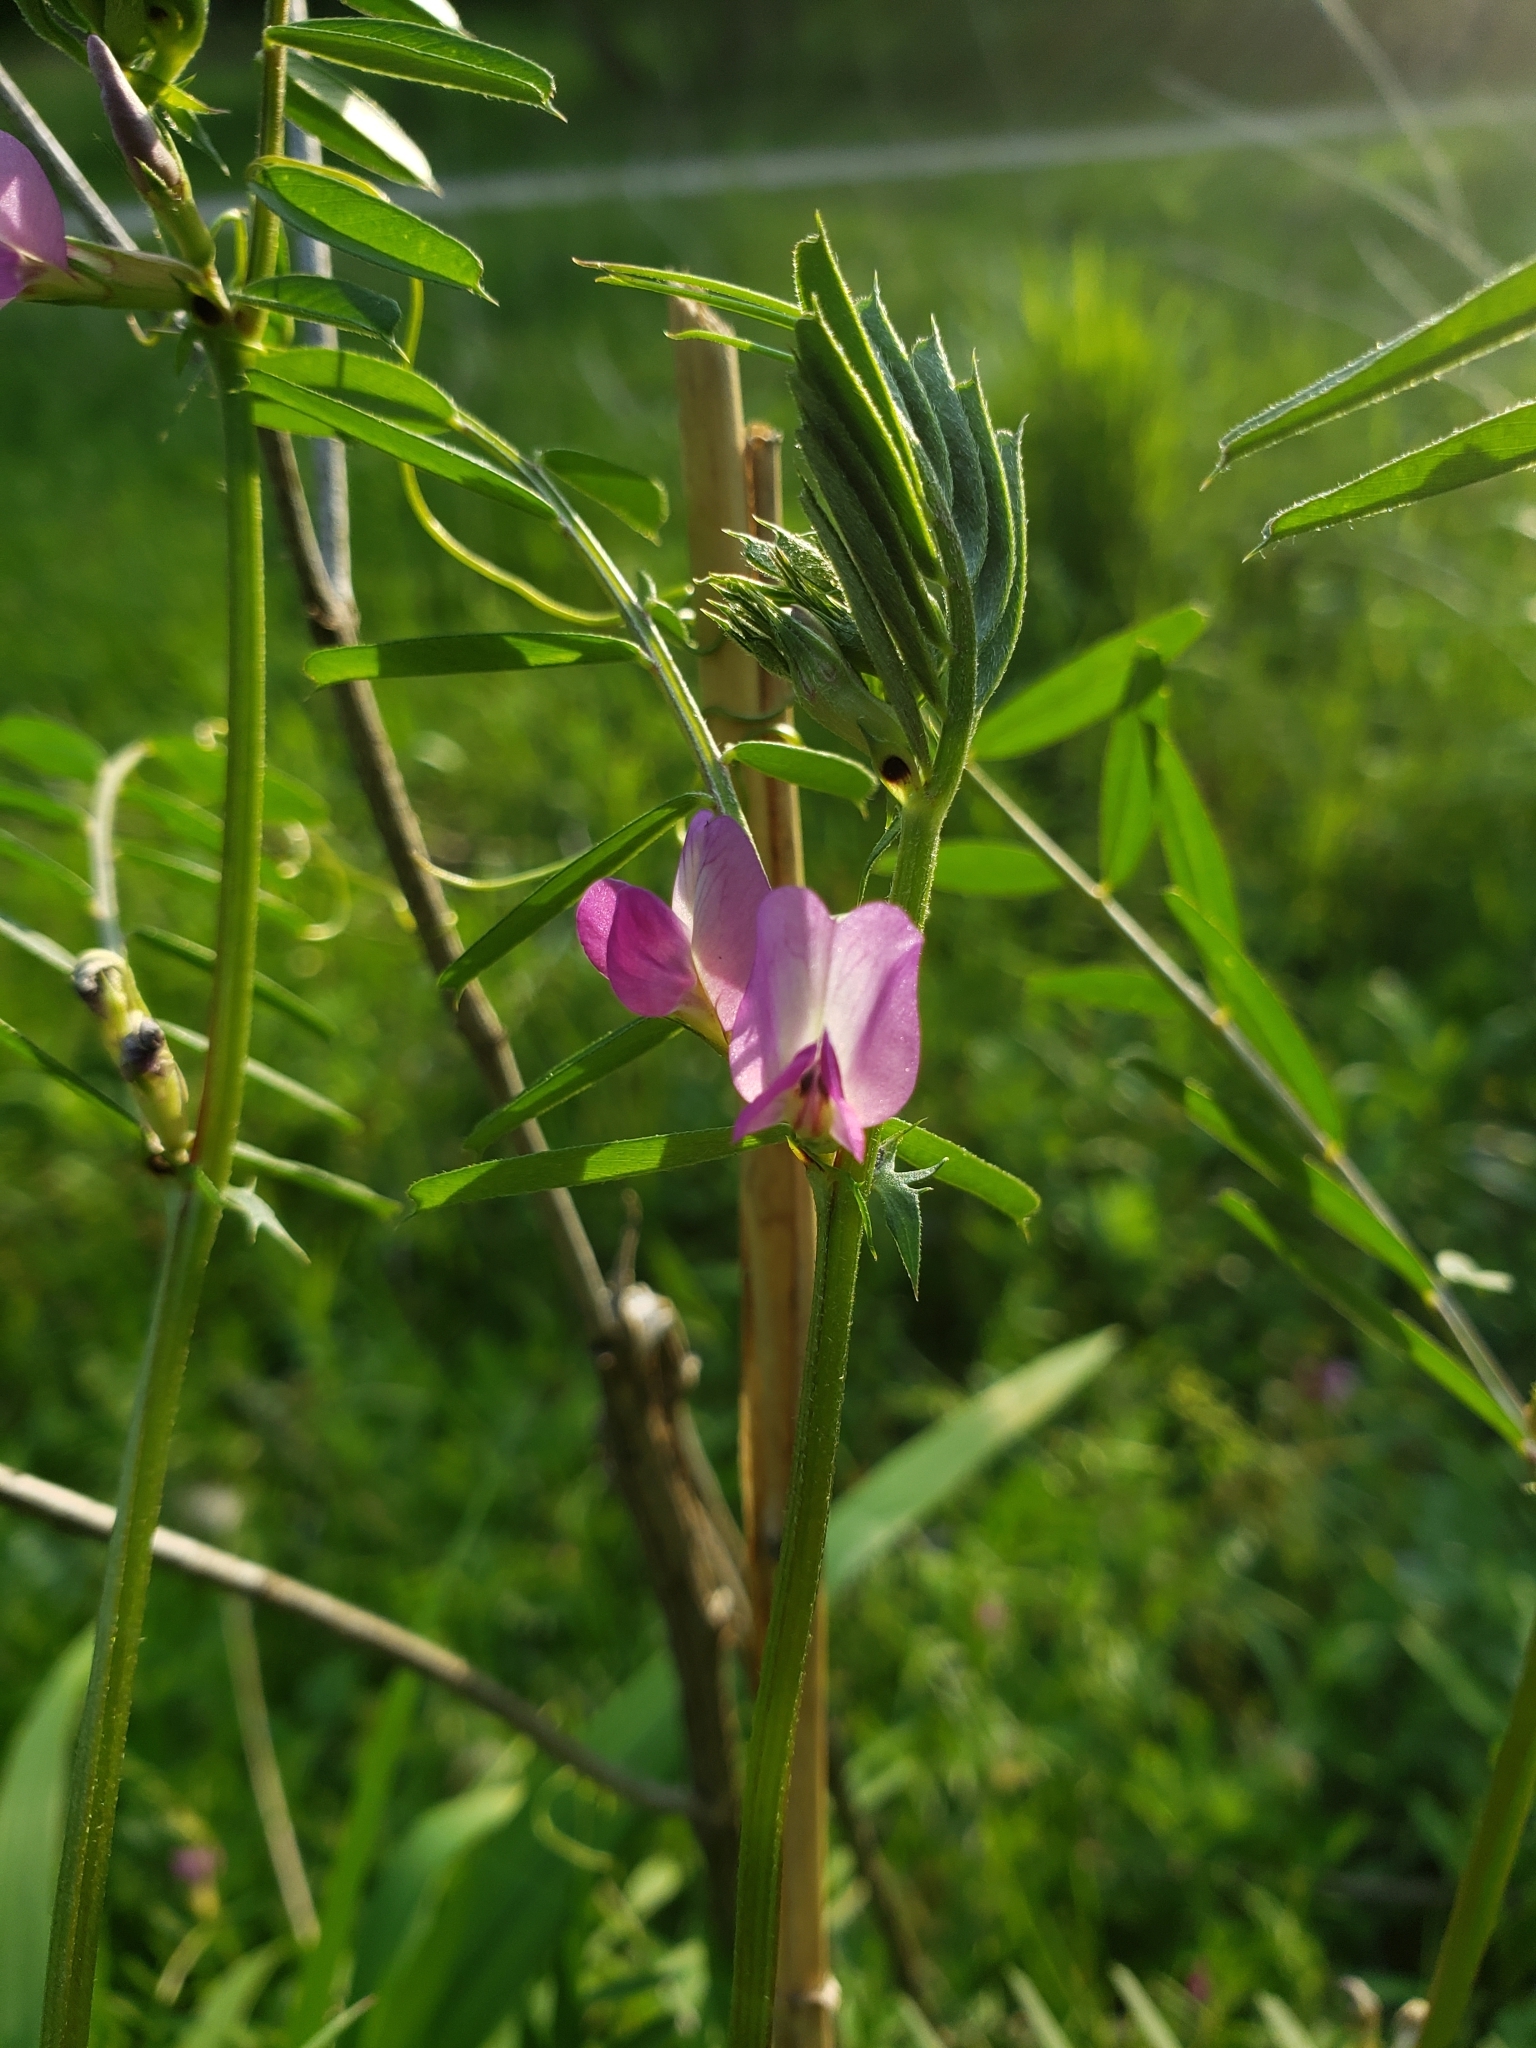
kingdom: Plantae
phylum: Tracheophyta
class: Magnoliopsida
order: Fabales
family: Fabaceae
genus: Vicia
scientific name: Vicia sativa
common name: Garden vetch
